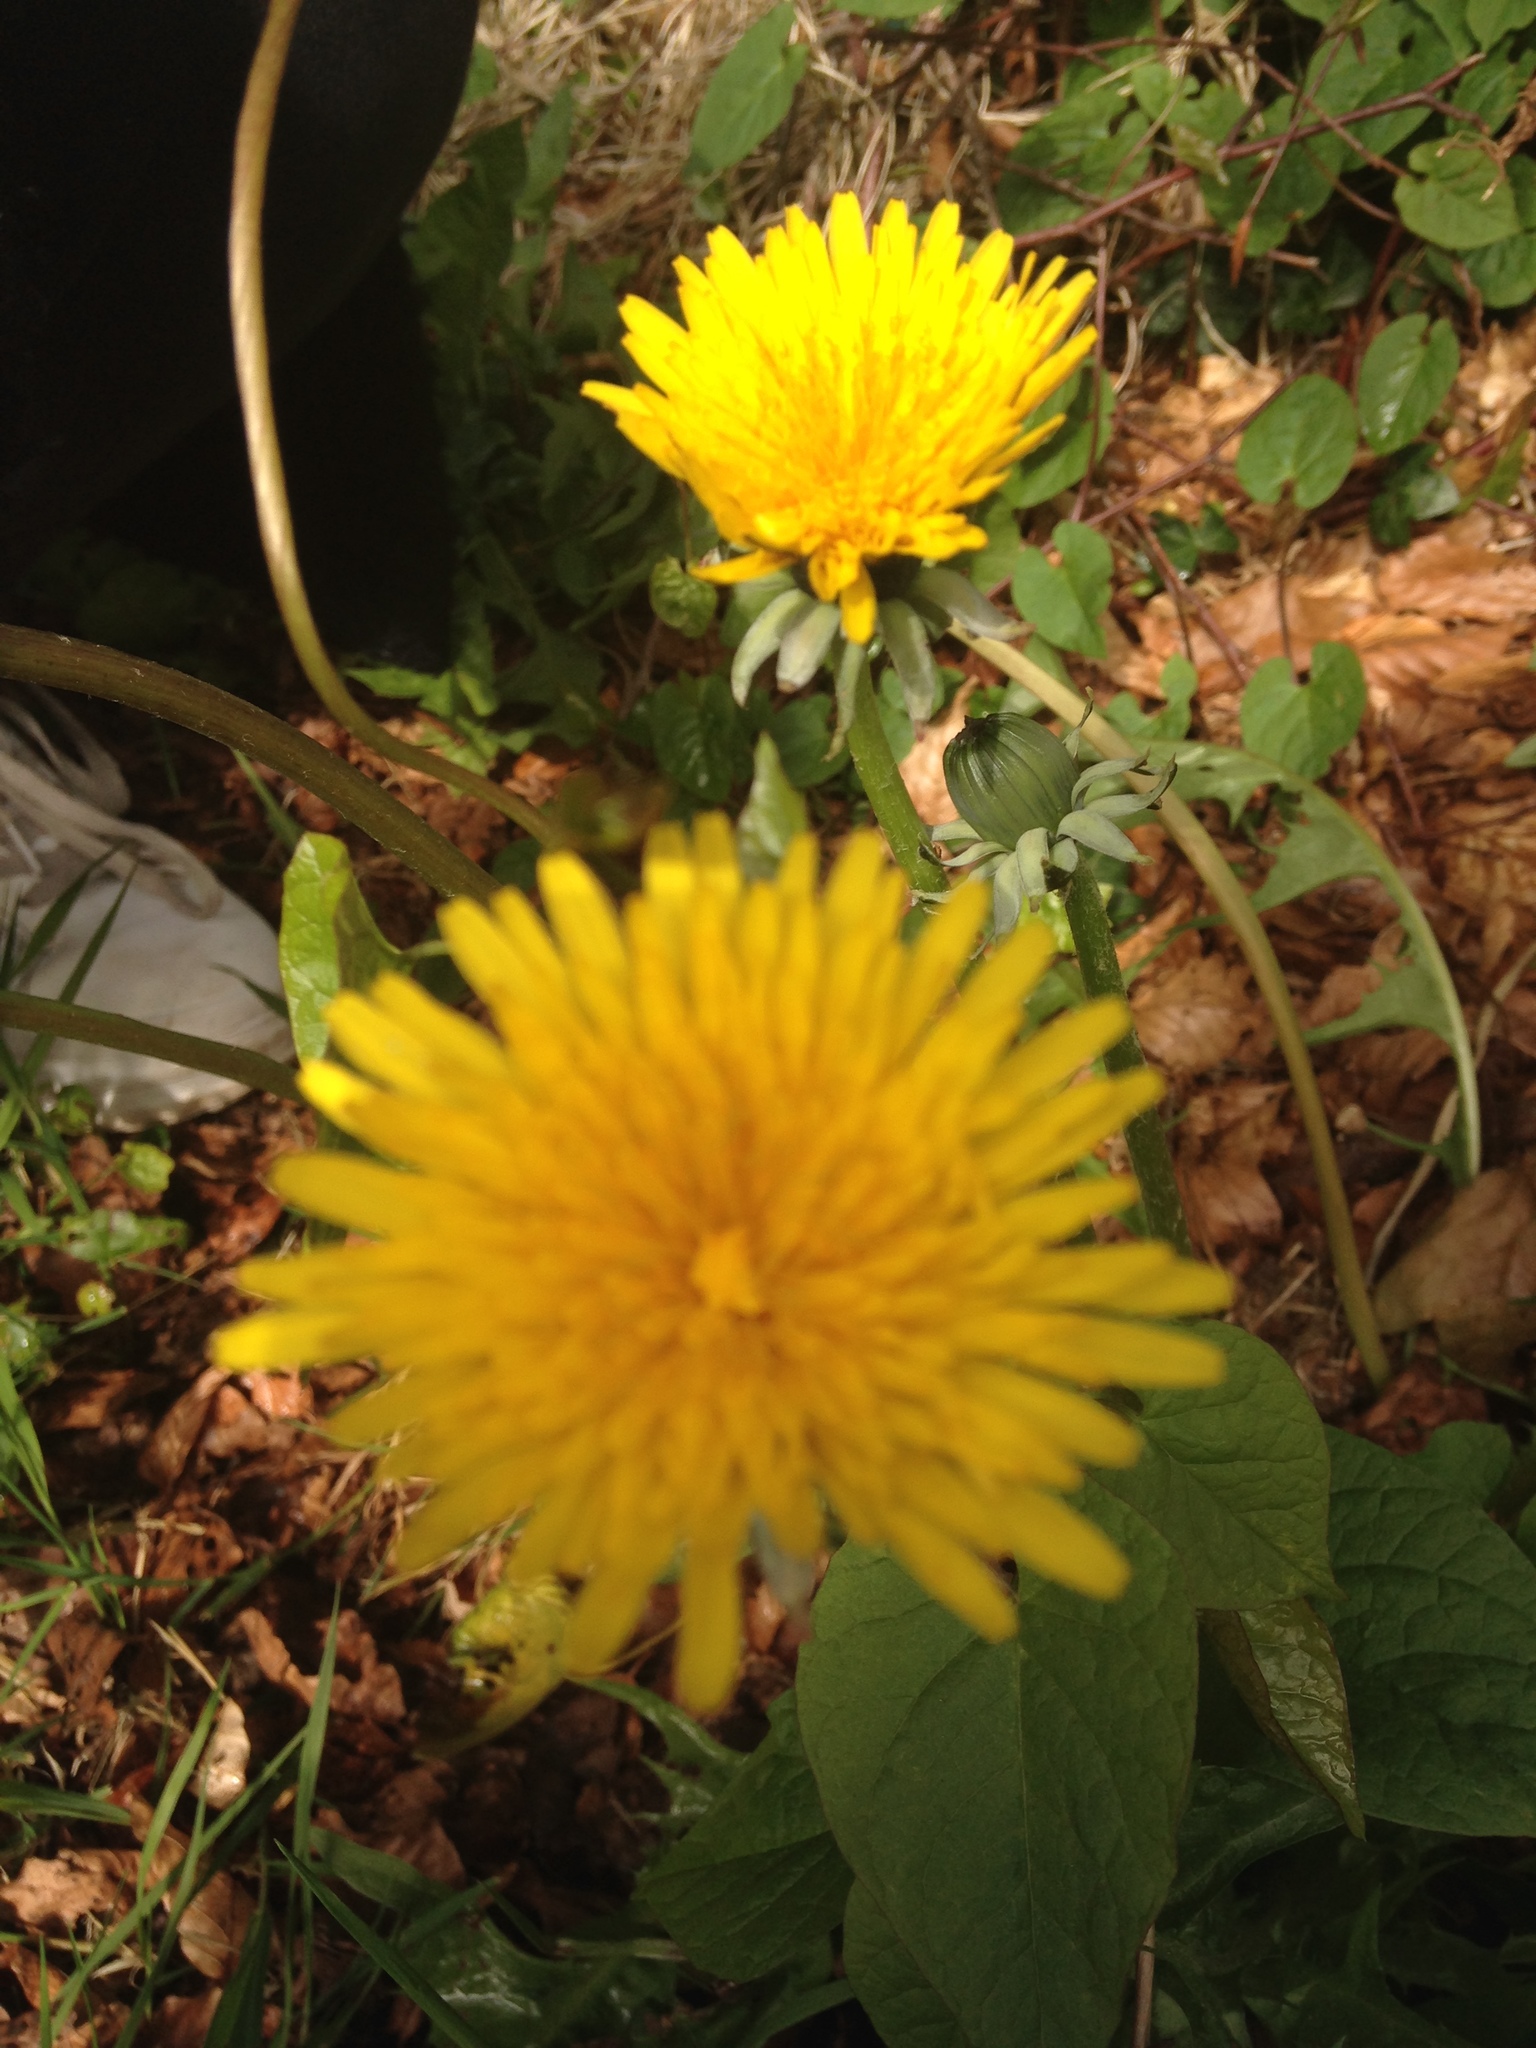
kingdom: Plantae
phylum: Tracheophyta
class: Magnoliopsida
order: Asterales
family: Asteraceae
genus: Taraxacum
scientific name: Taraxacum officinale
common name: Common dandelion
